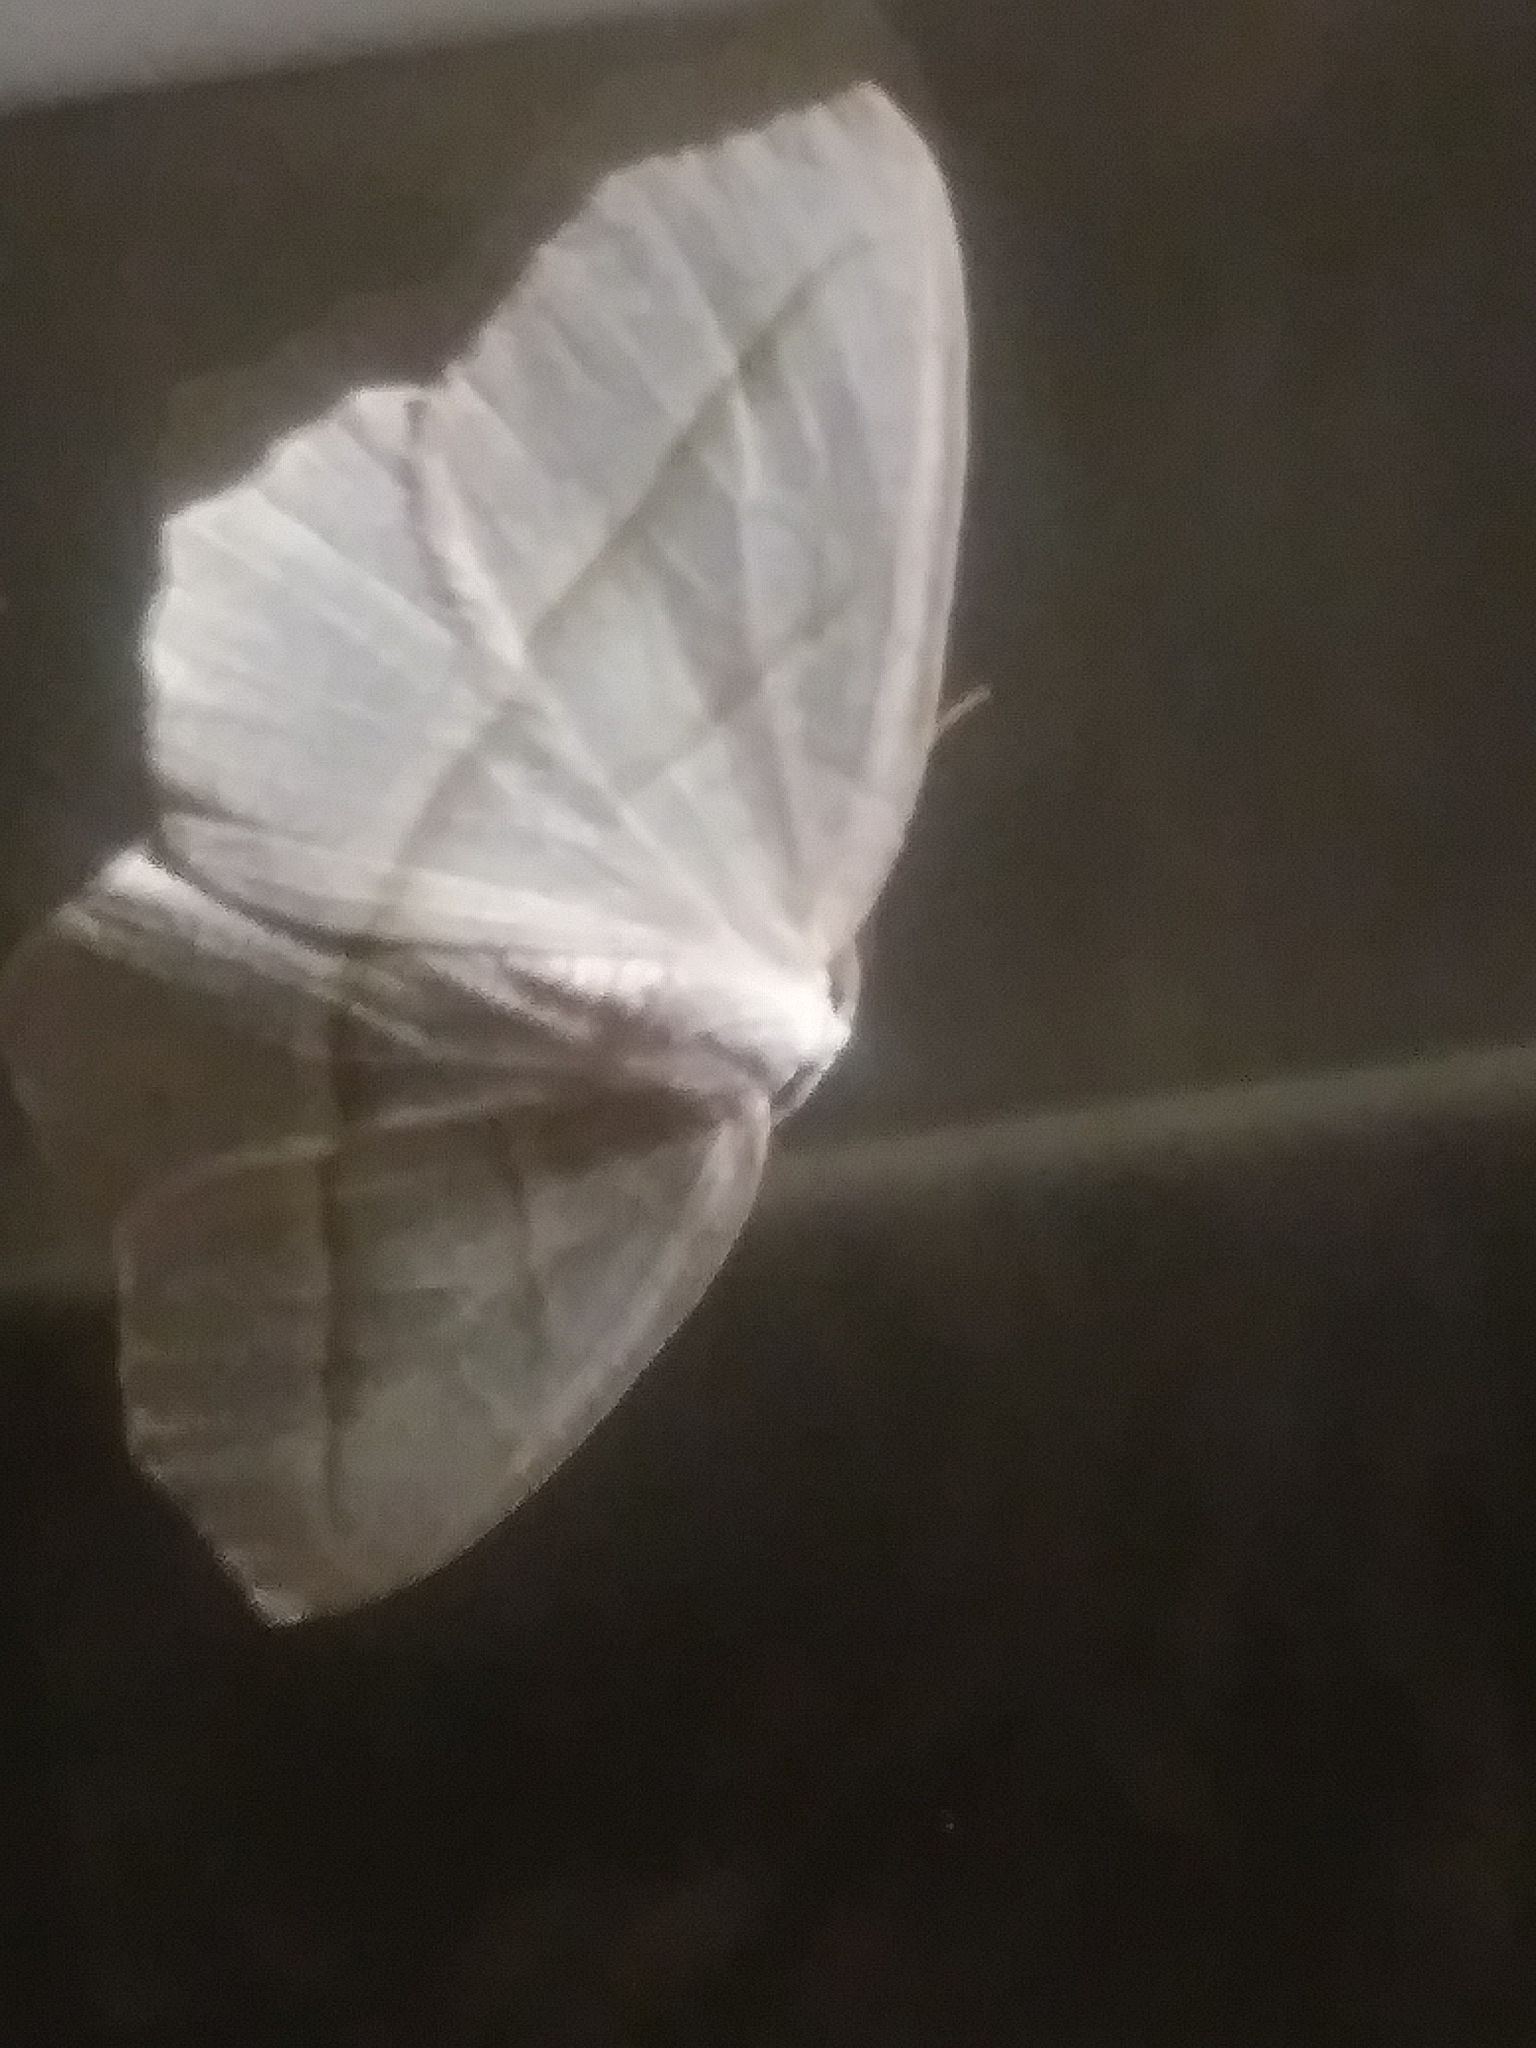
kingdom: Animalia
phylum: Arthropoda
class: Insecta
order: Lepidoptera
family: Geometridae
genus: Campaea
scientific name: Campaea perlata
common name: Fringed looper
